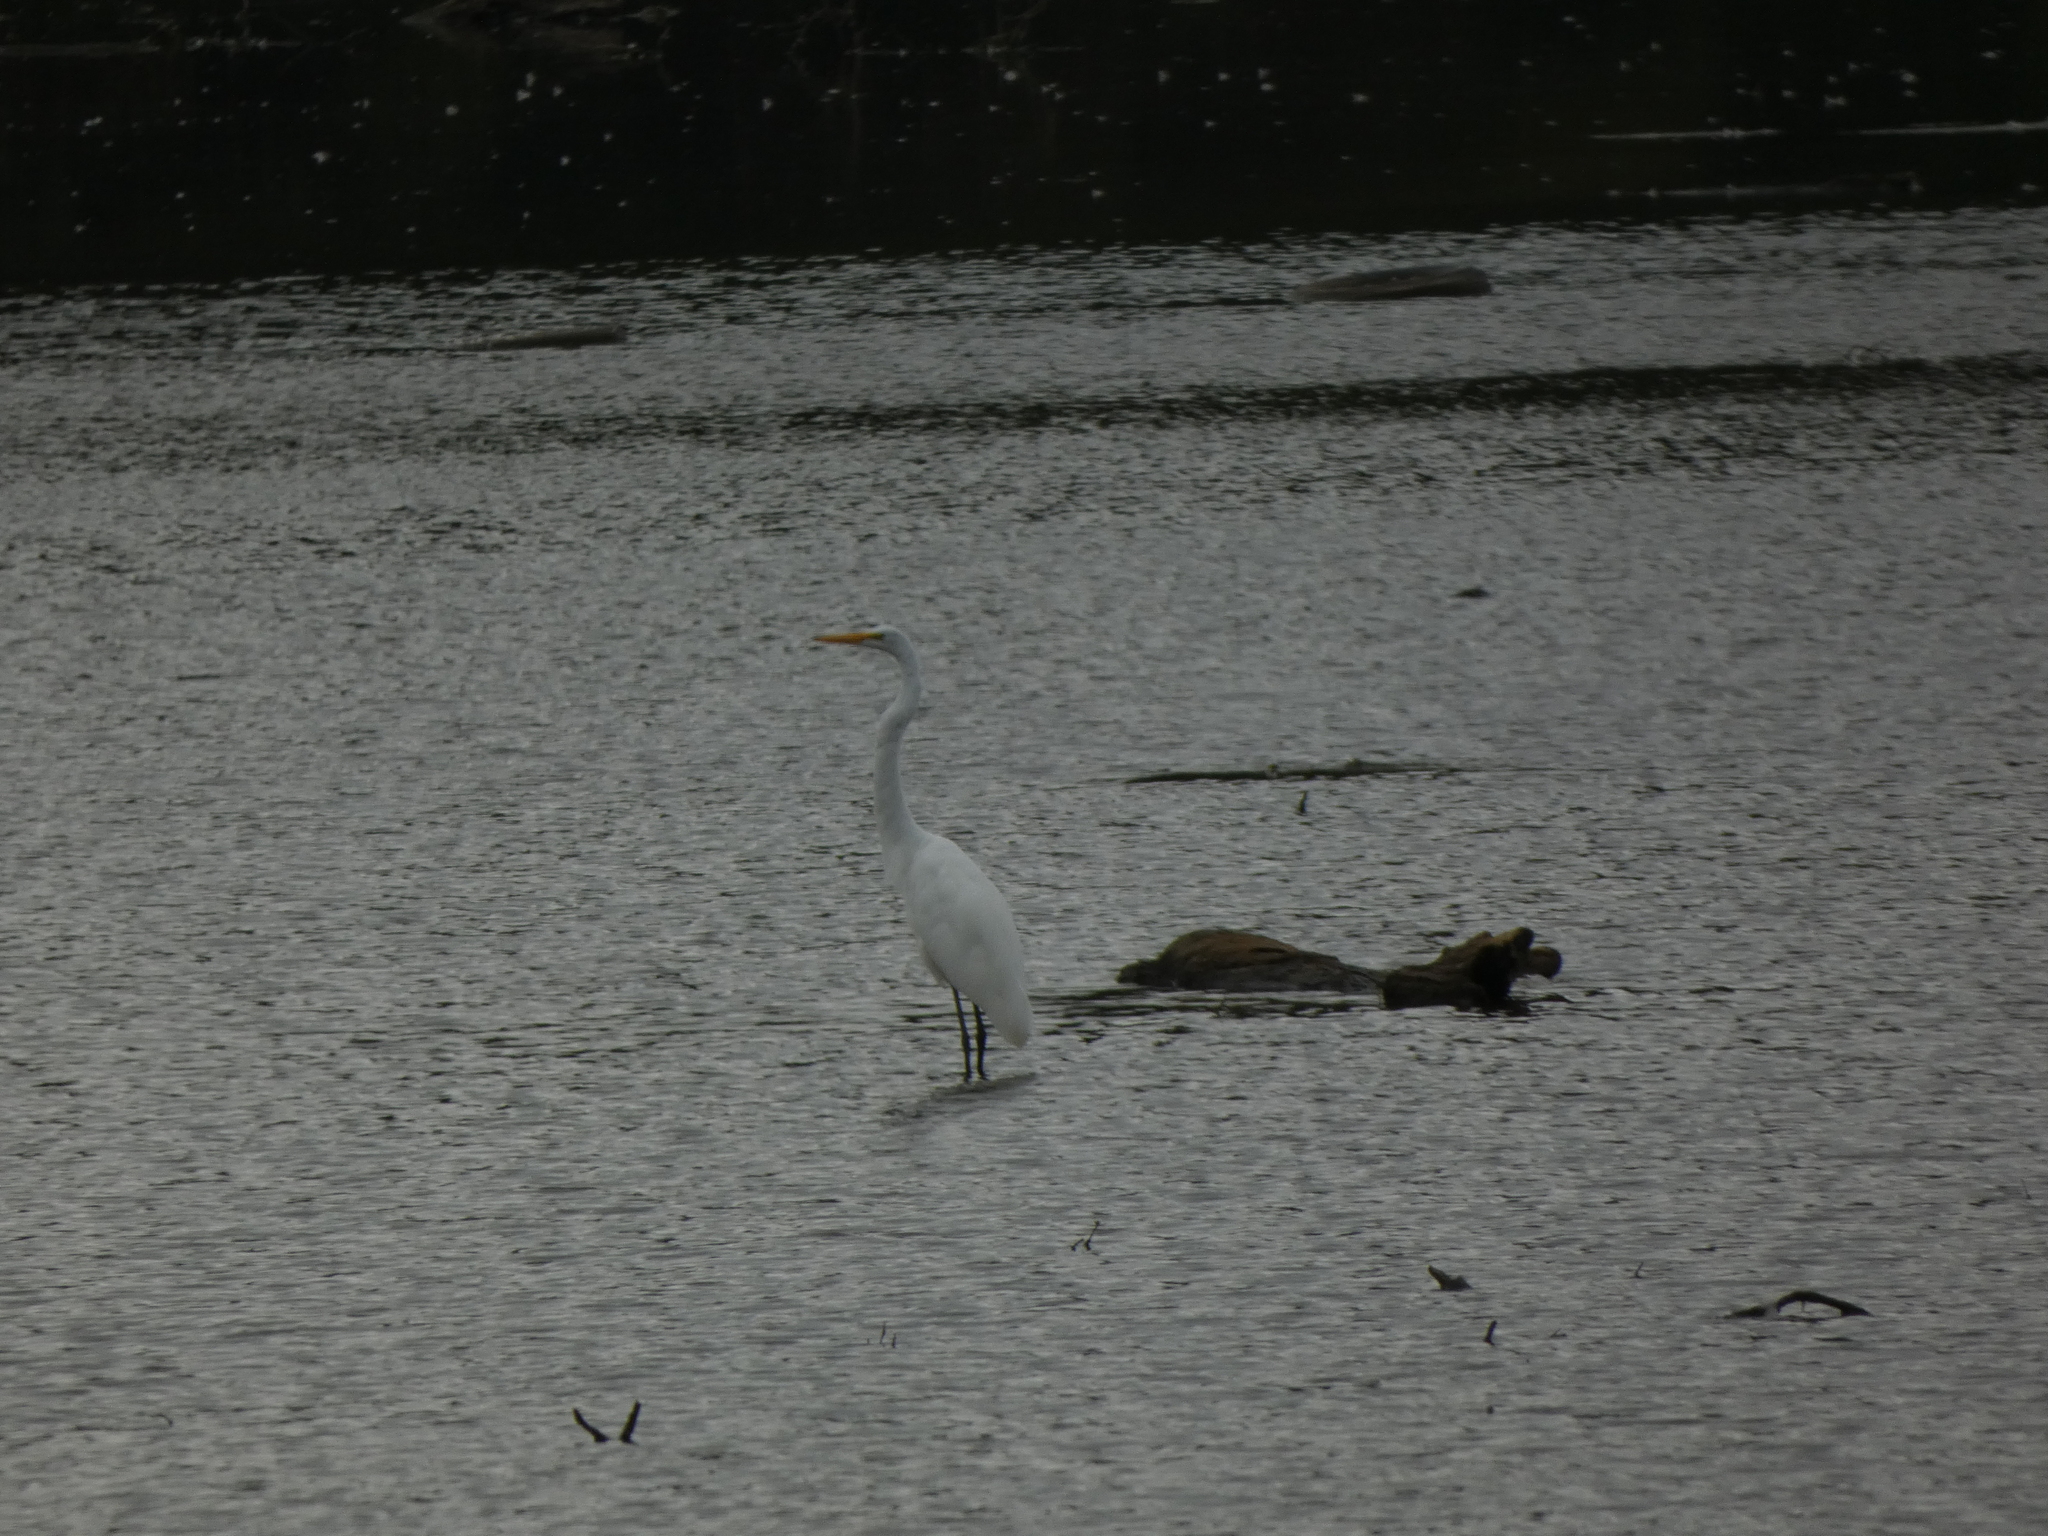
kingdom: Animalia
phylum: Chordata
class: Aves
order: Pelecaniformes
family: Ardeidae
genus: Ardea
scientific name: Ardea alba
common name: Great egret
